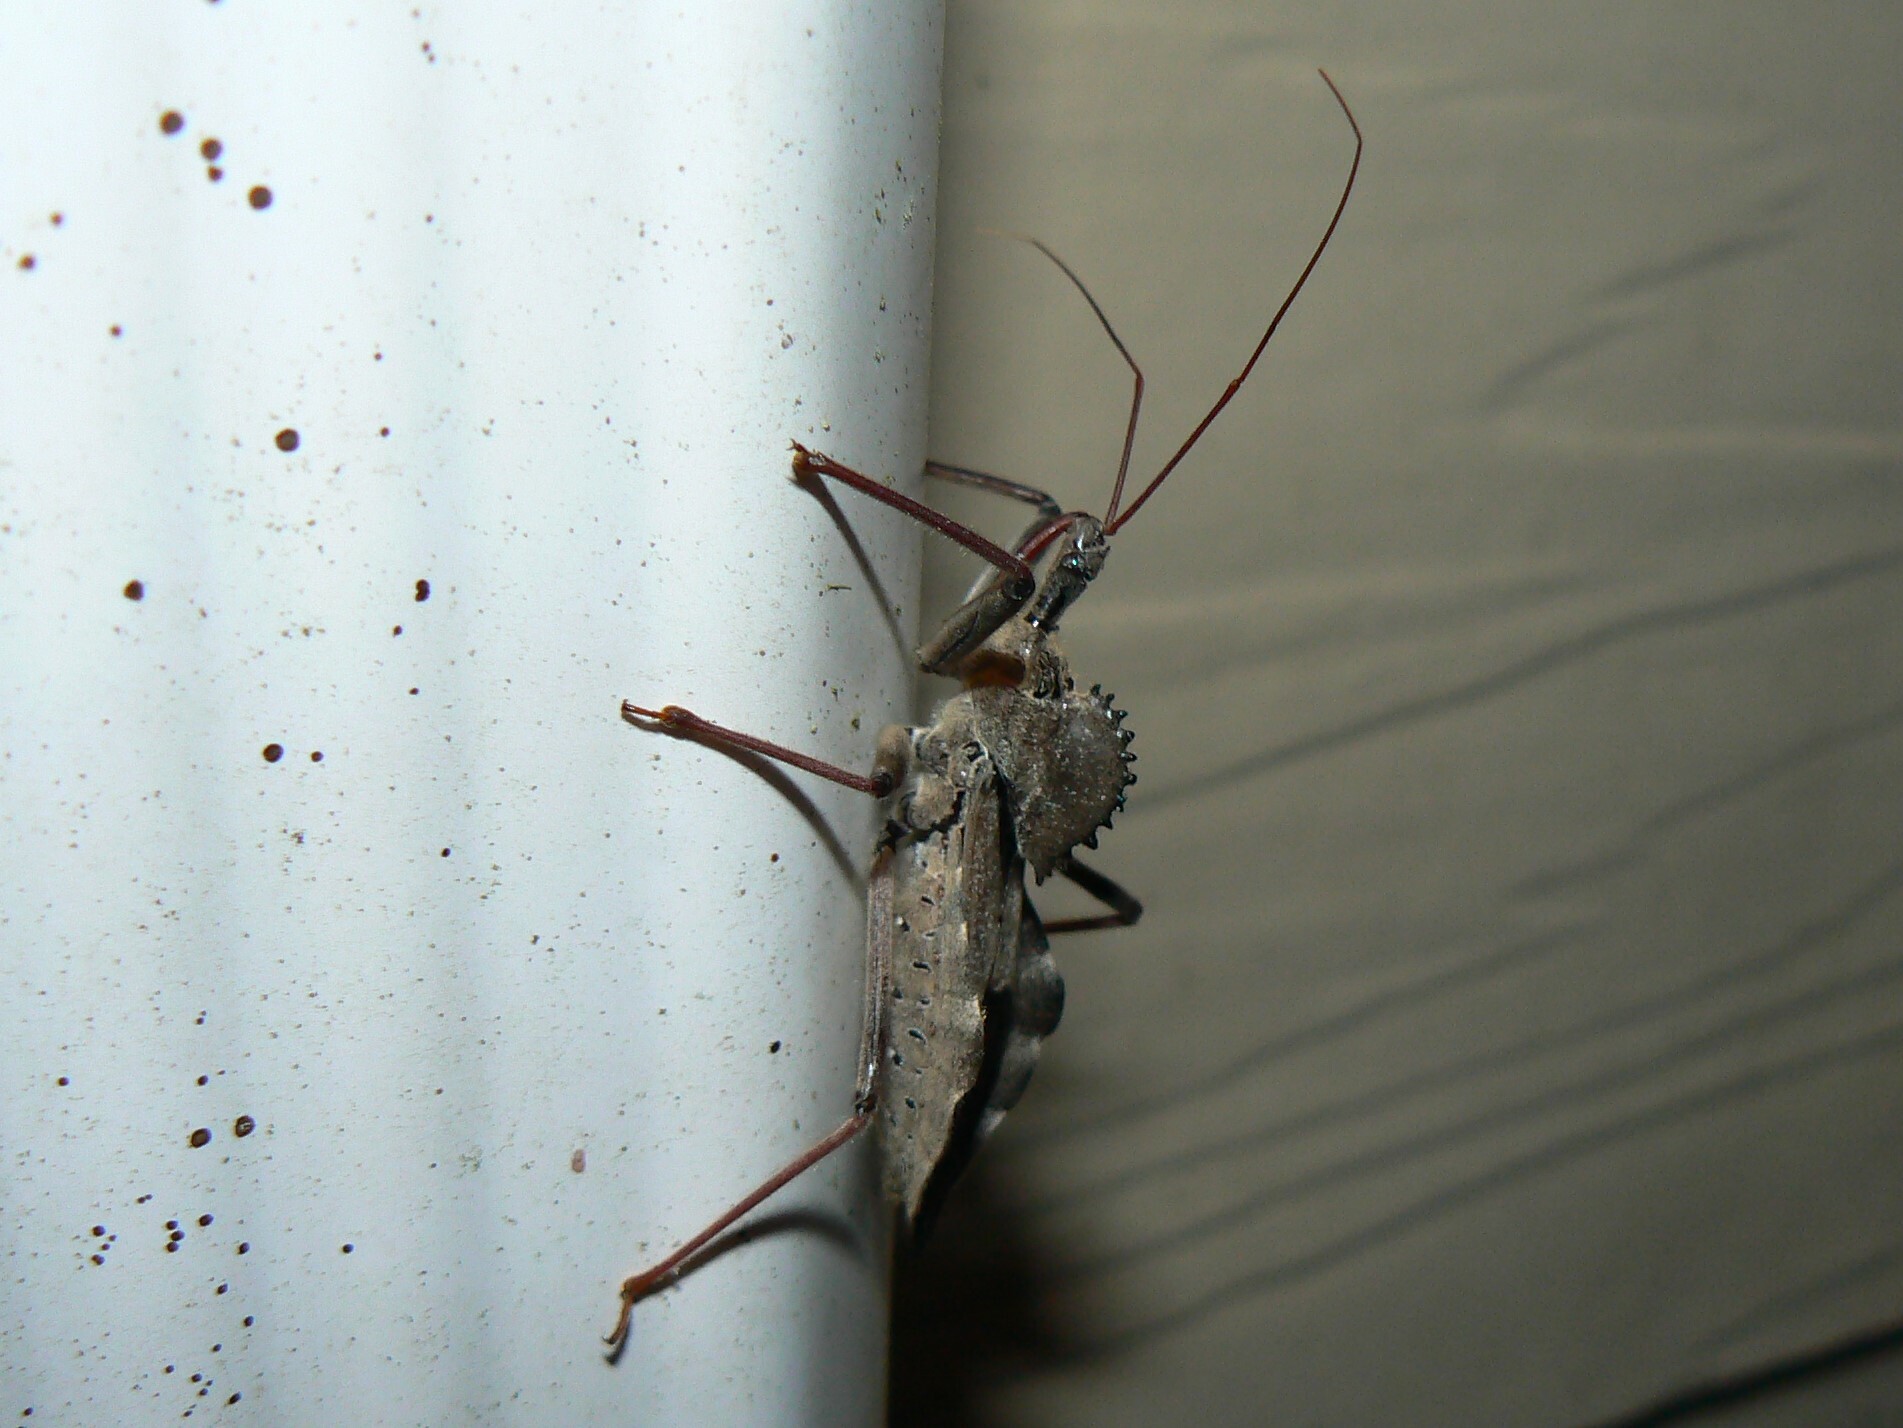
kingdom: Animalia
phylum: Arthropoda
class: Insecta
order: Hemiptera
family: Reduviidae
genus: Arilus
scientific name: Arilus cristatus
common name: North american wheel bug
